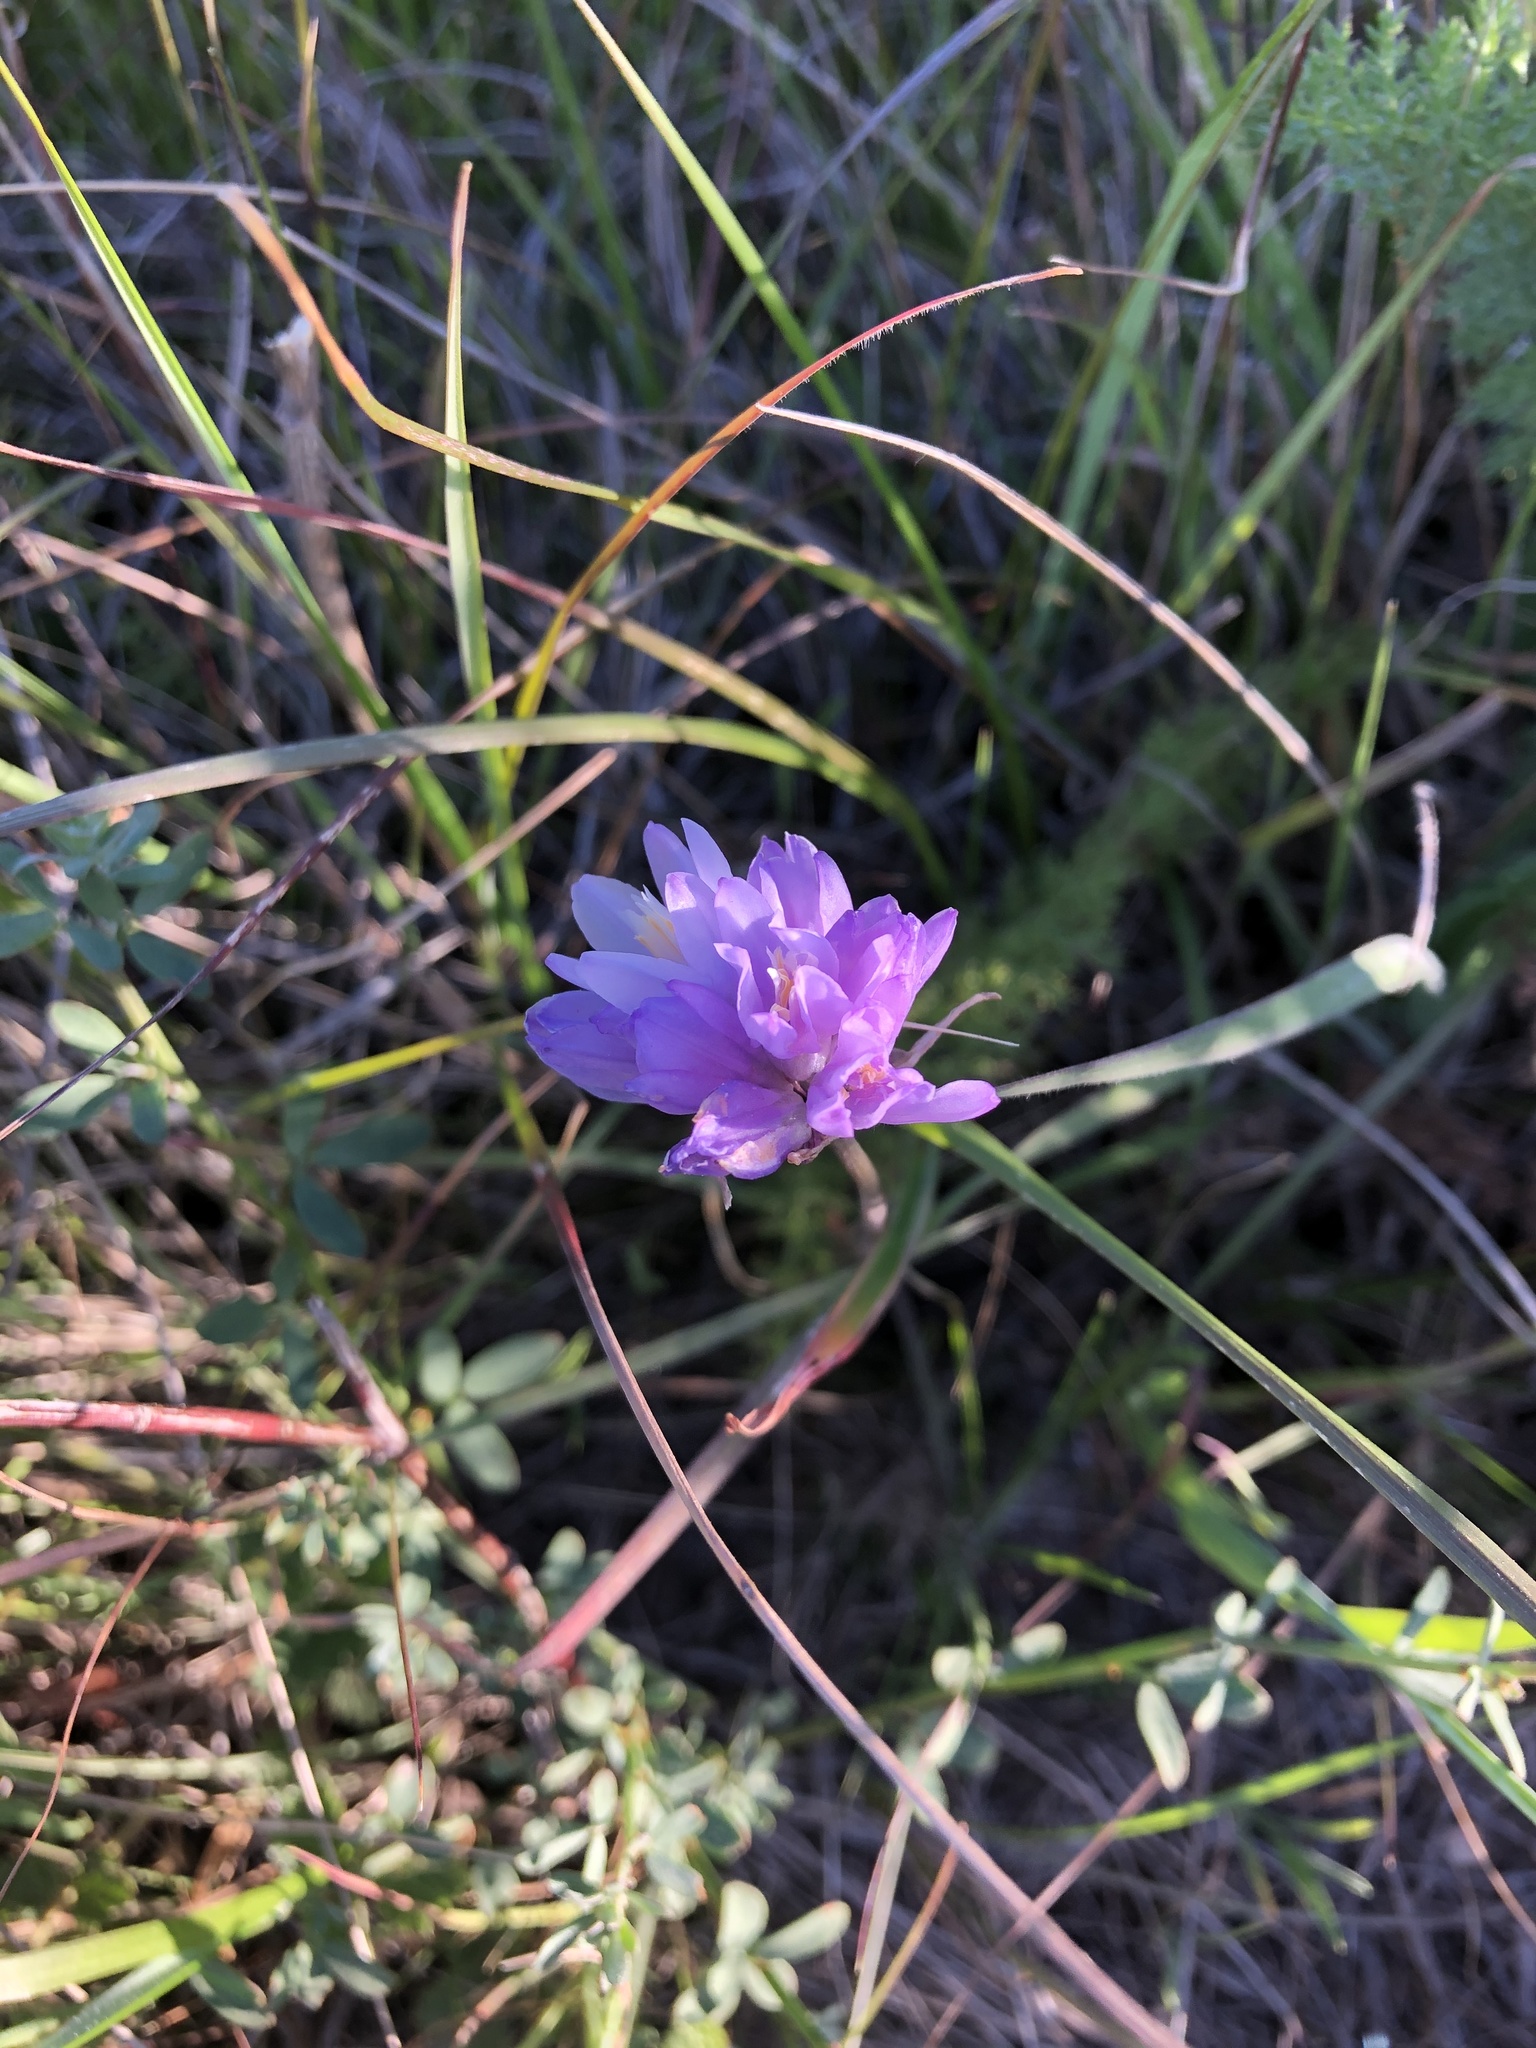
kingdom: Plantae
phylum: Tracheophyta
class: Liliopsida
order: Asparagales
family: Asparagaceae
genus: Dipterostemon
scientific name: Dipterostemon capitatus
